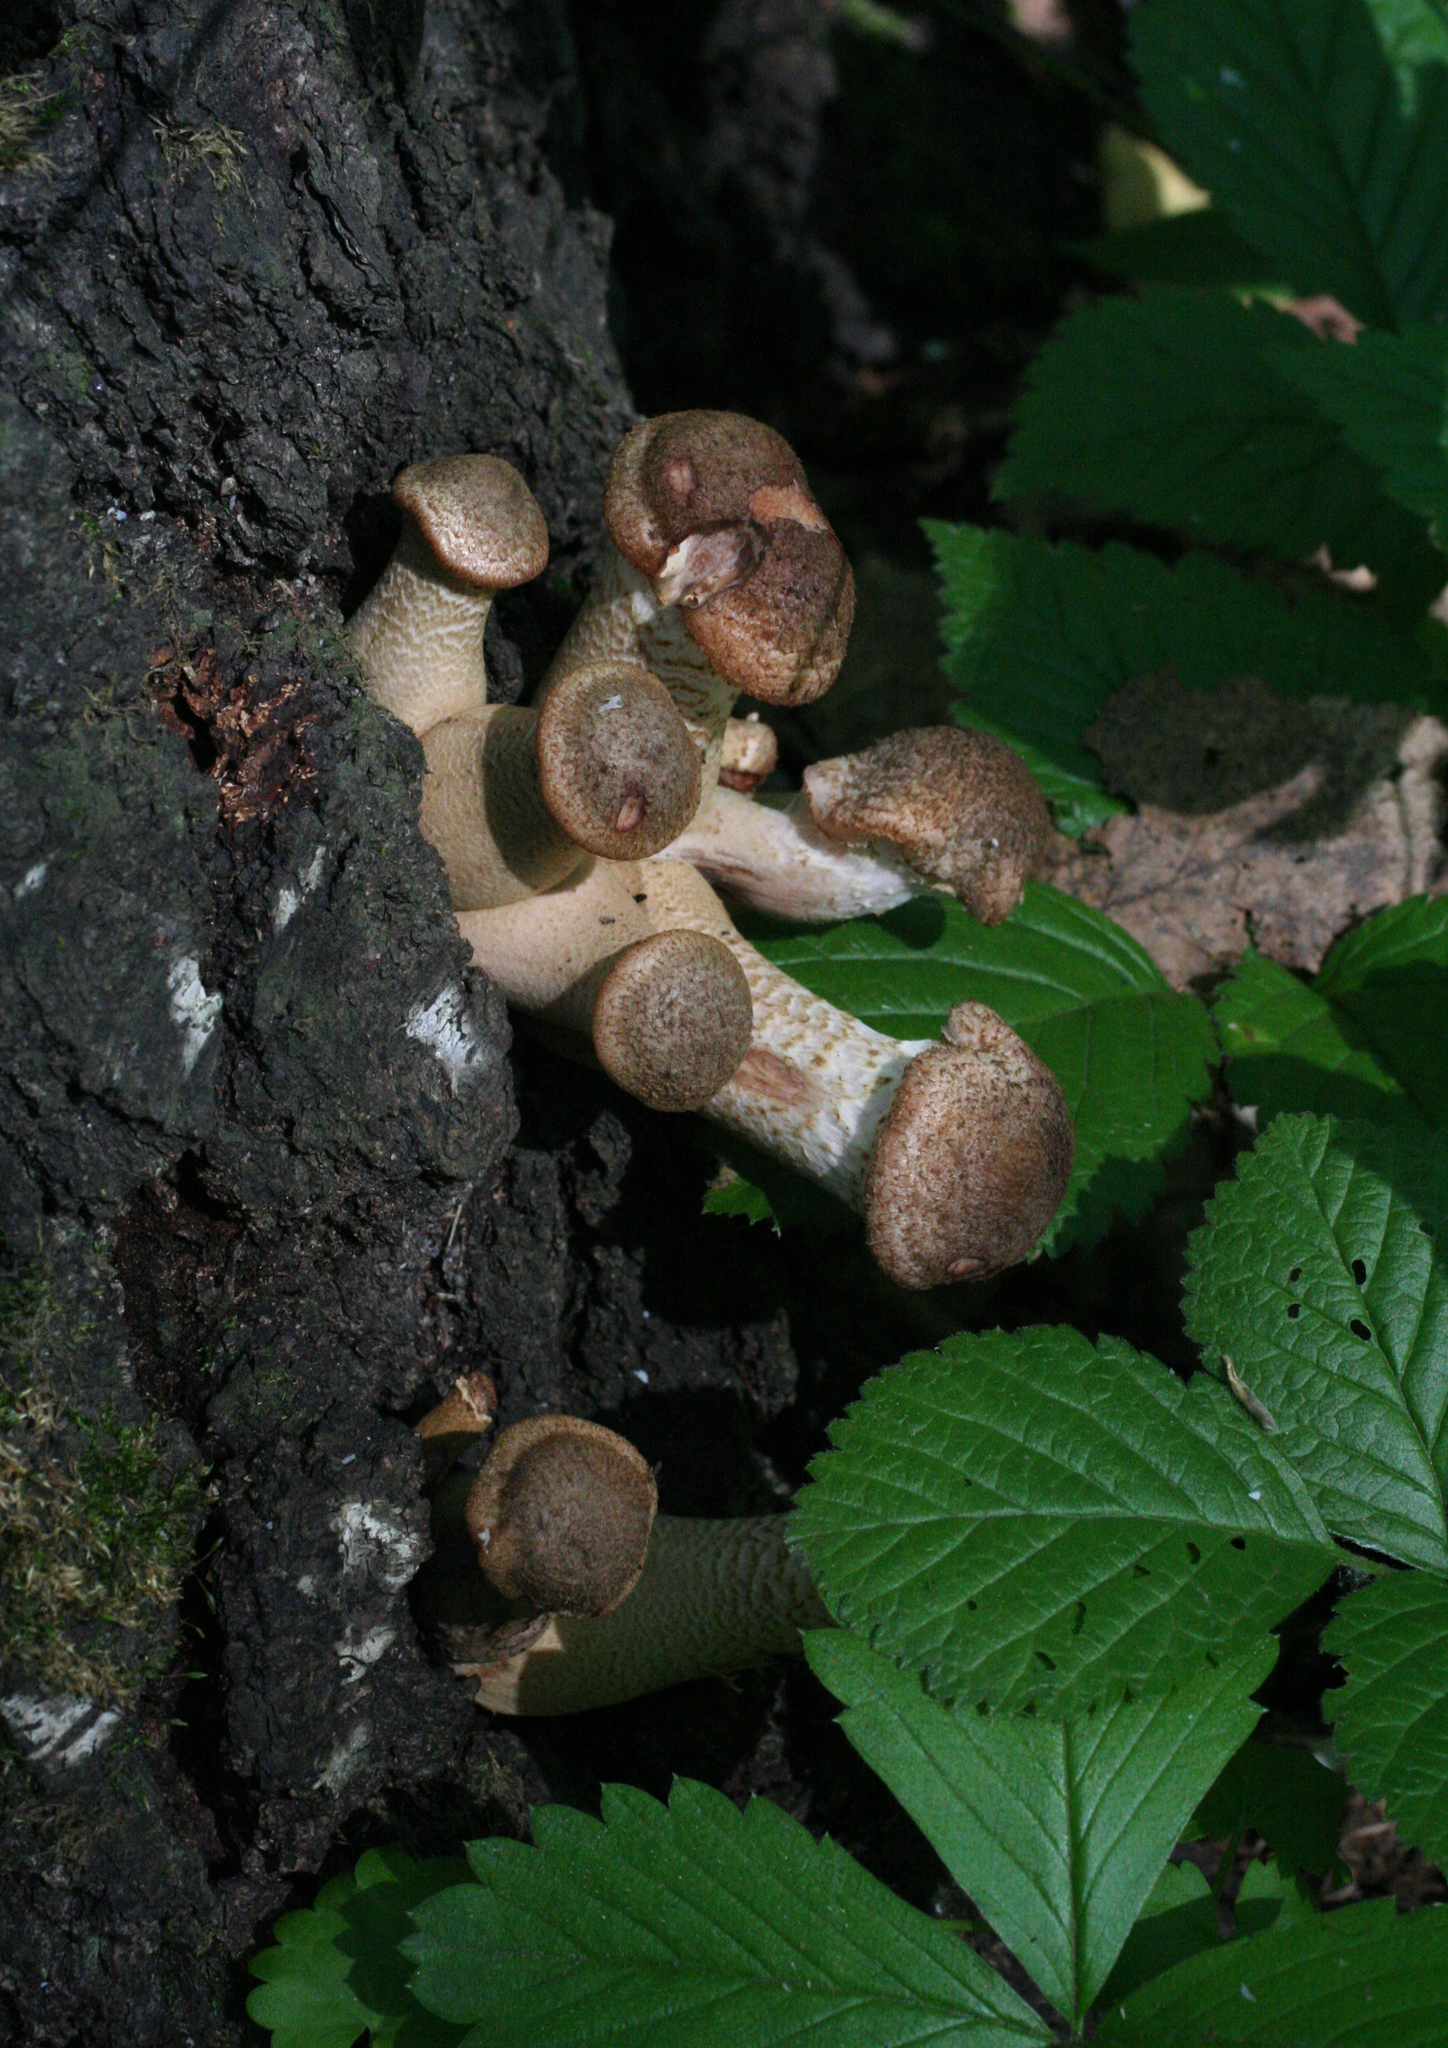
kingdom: Fungi
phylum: Basidiomycota
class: Agaricomycetes
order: Agaricales
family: Physalacriaceae
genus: Armillaria
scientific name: Armillaria gallica
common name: Bulbous honey fungus
